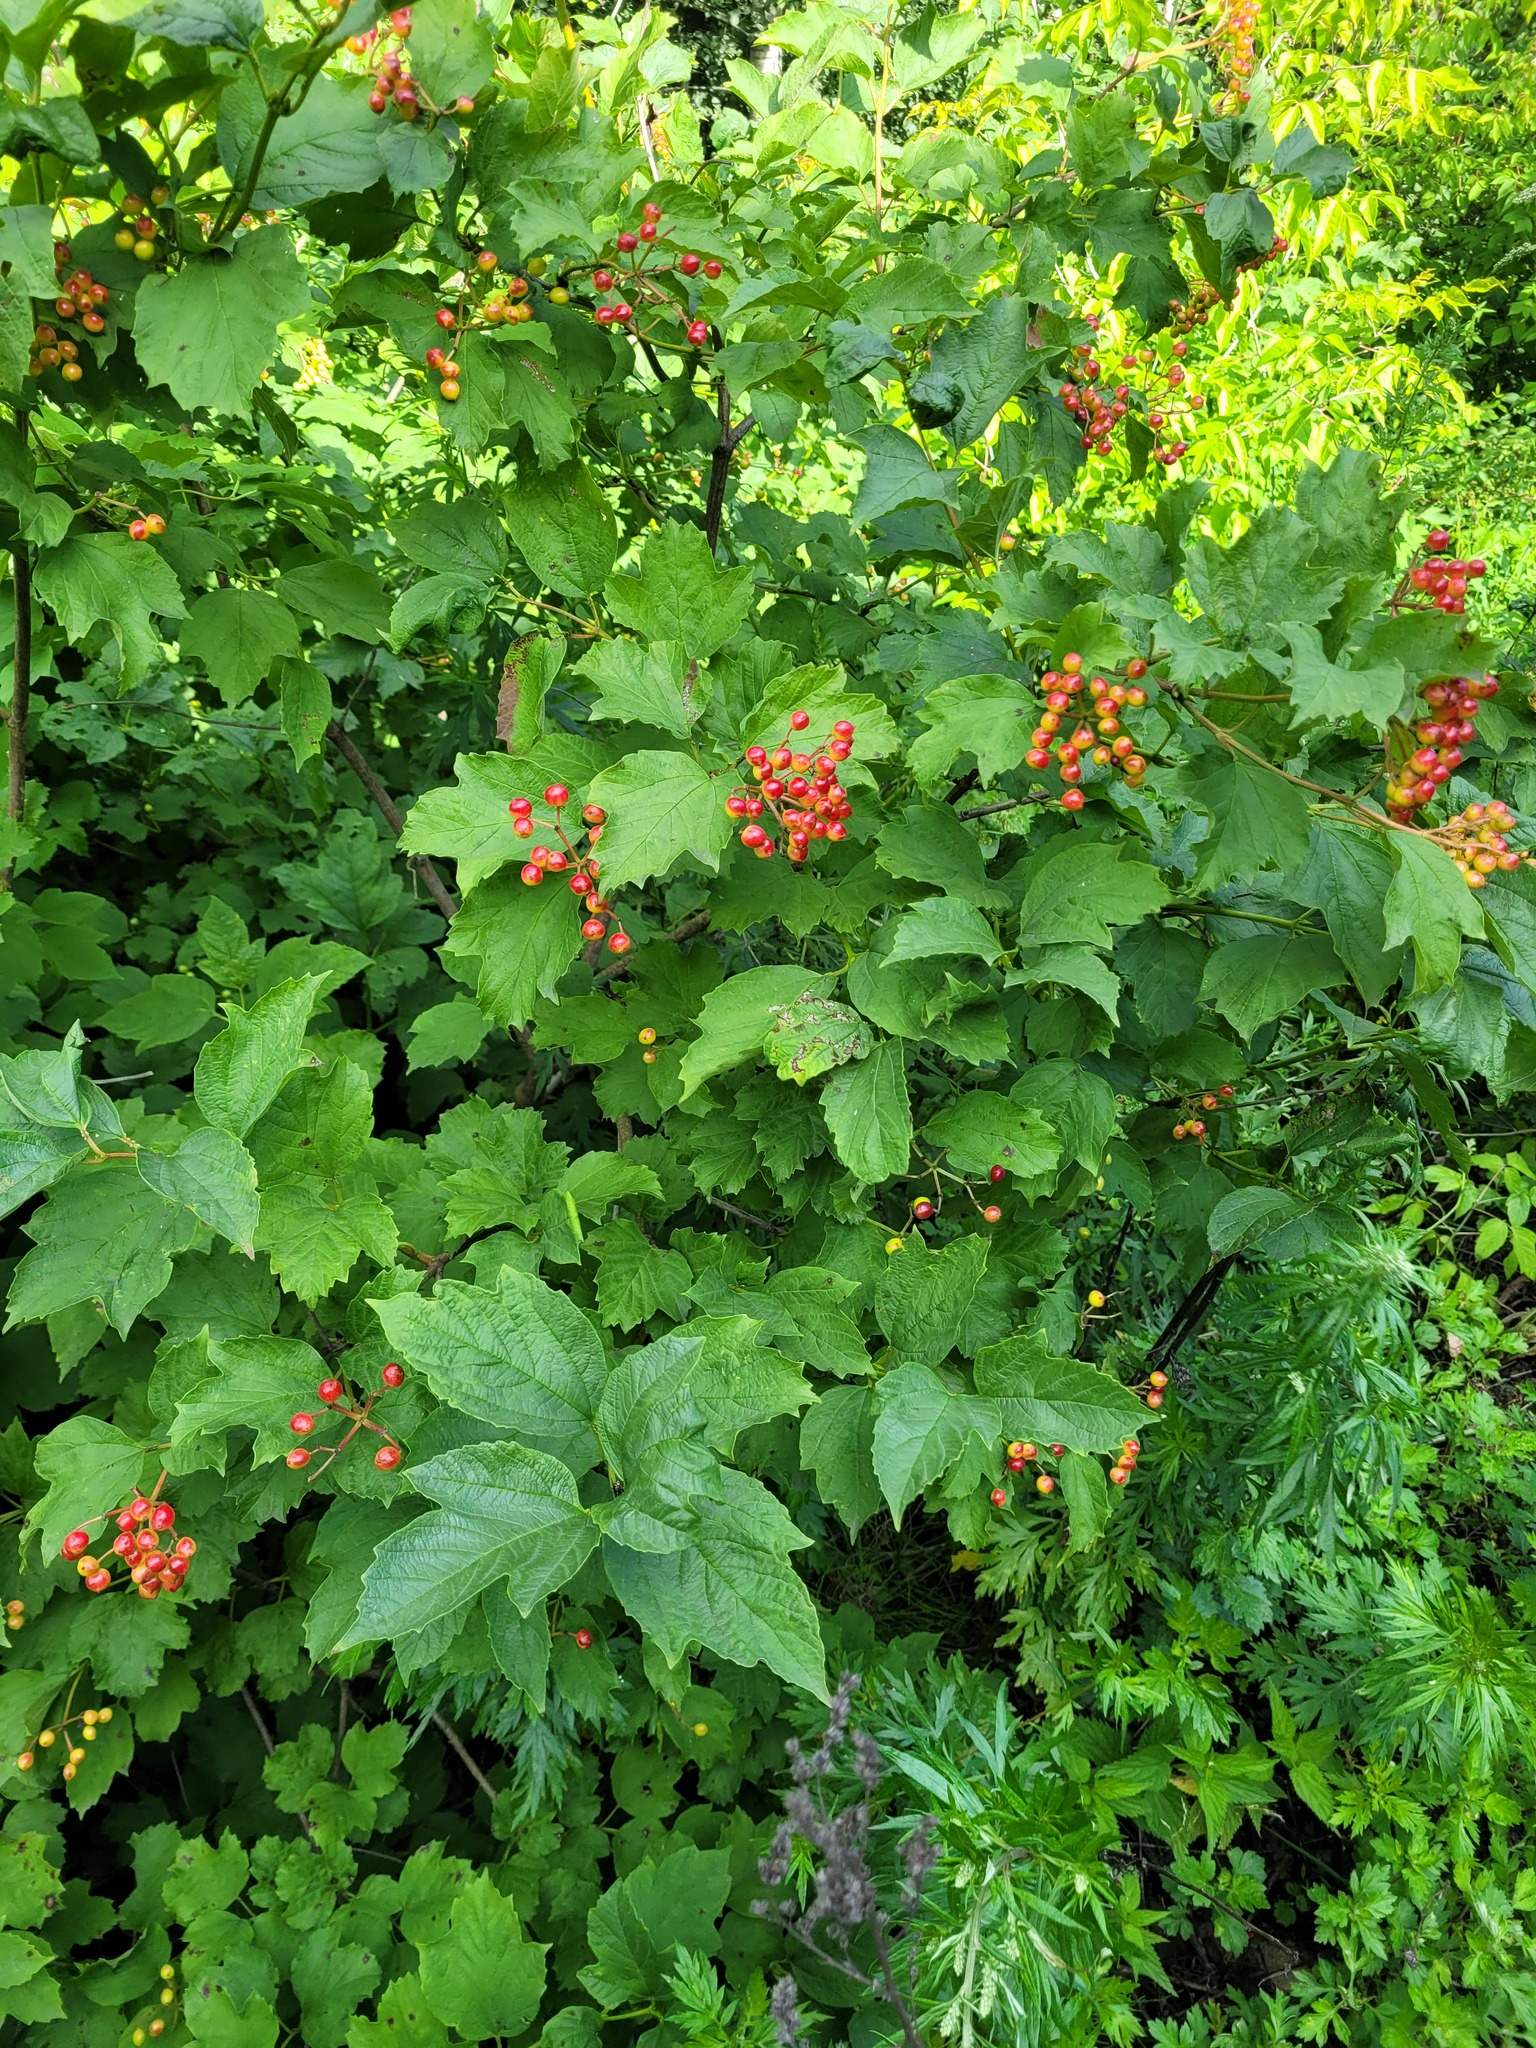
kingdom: Plantae
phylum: Tracheophyta
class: Magnoliopsida
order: Dipsacales
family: Viburnaceae
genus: Viburnum
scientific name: Viburnum opulus
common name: Guelder-rose
